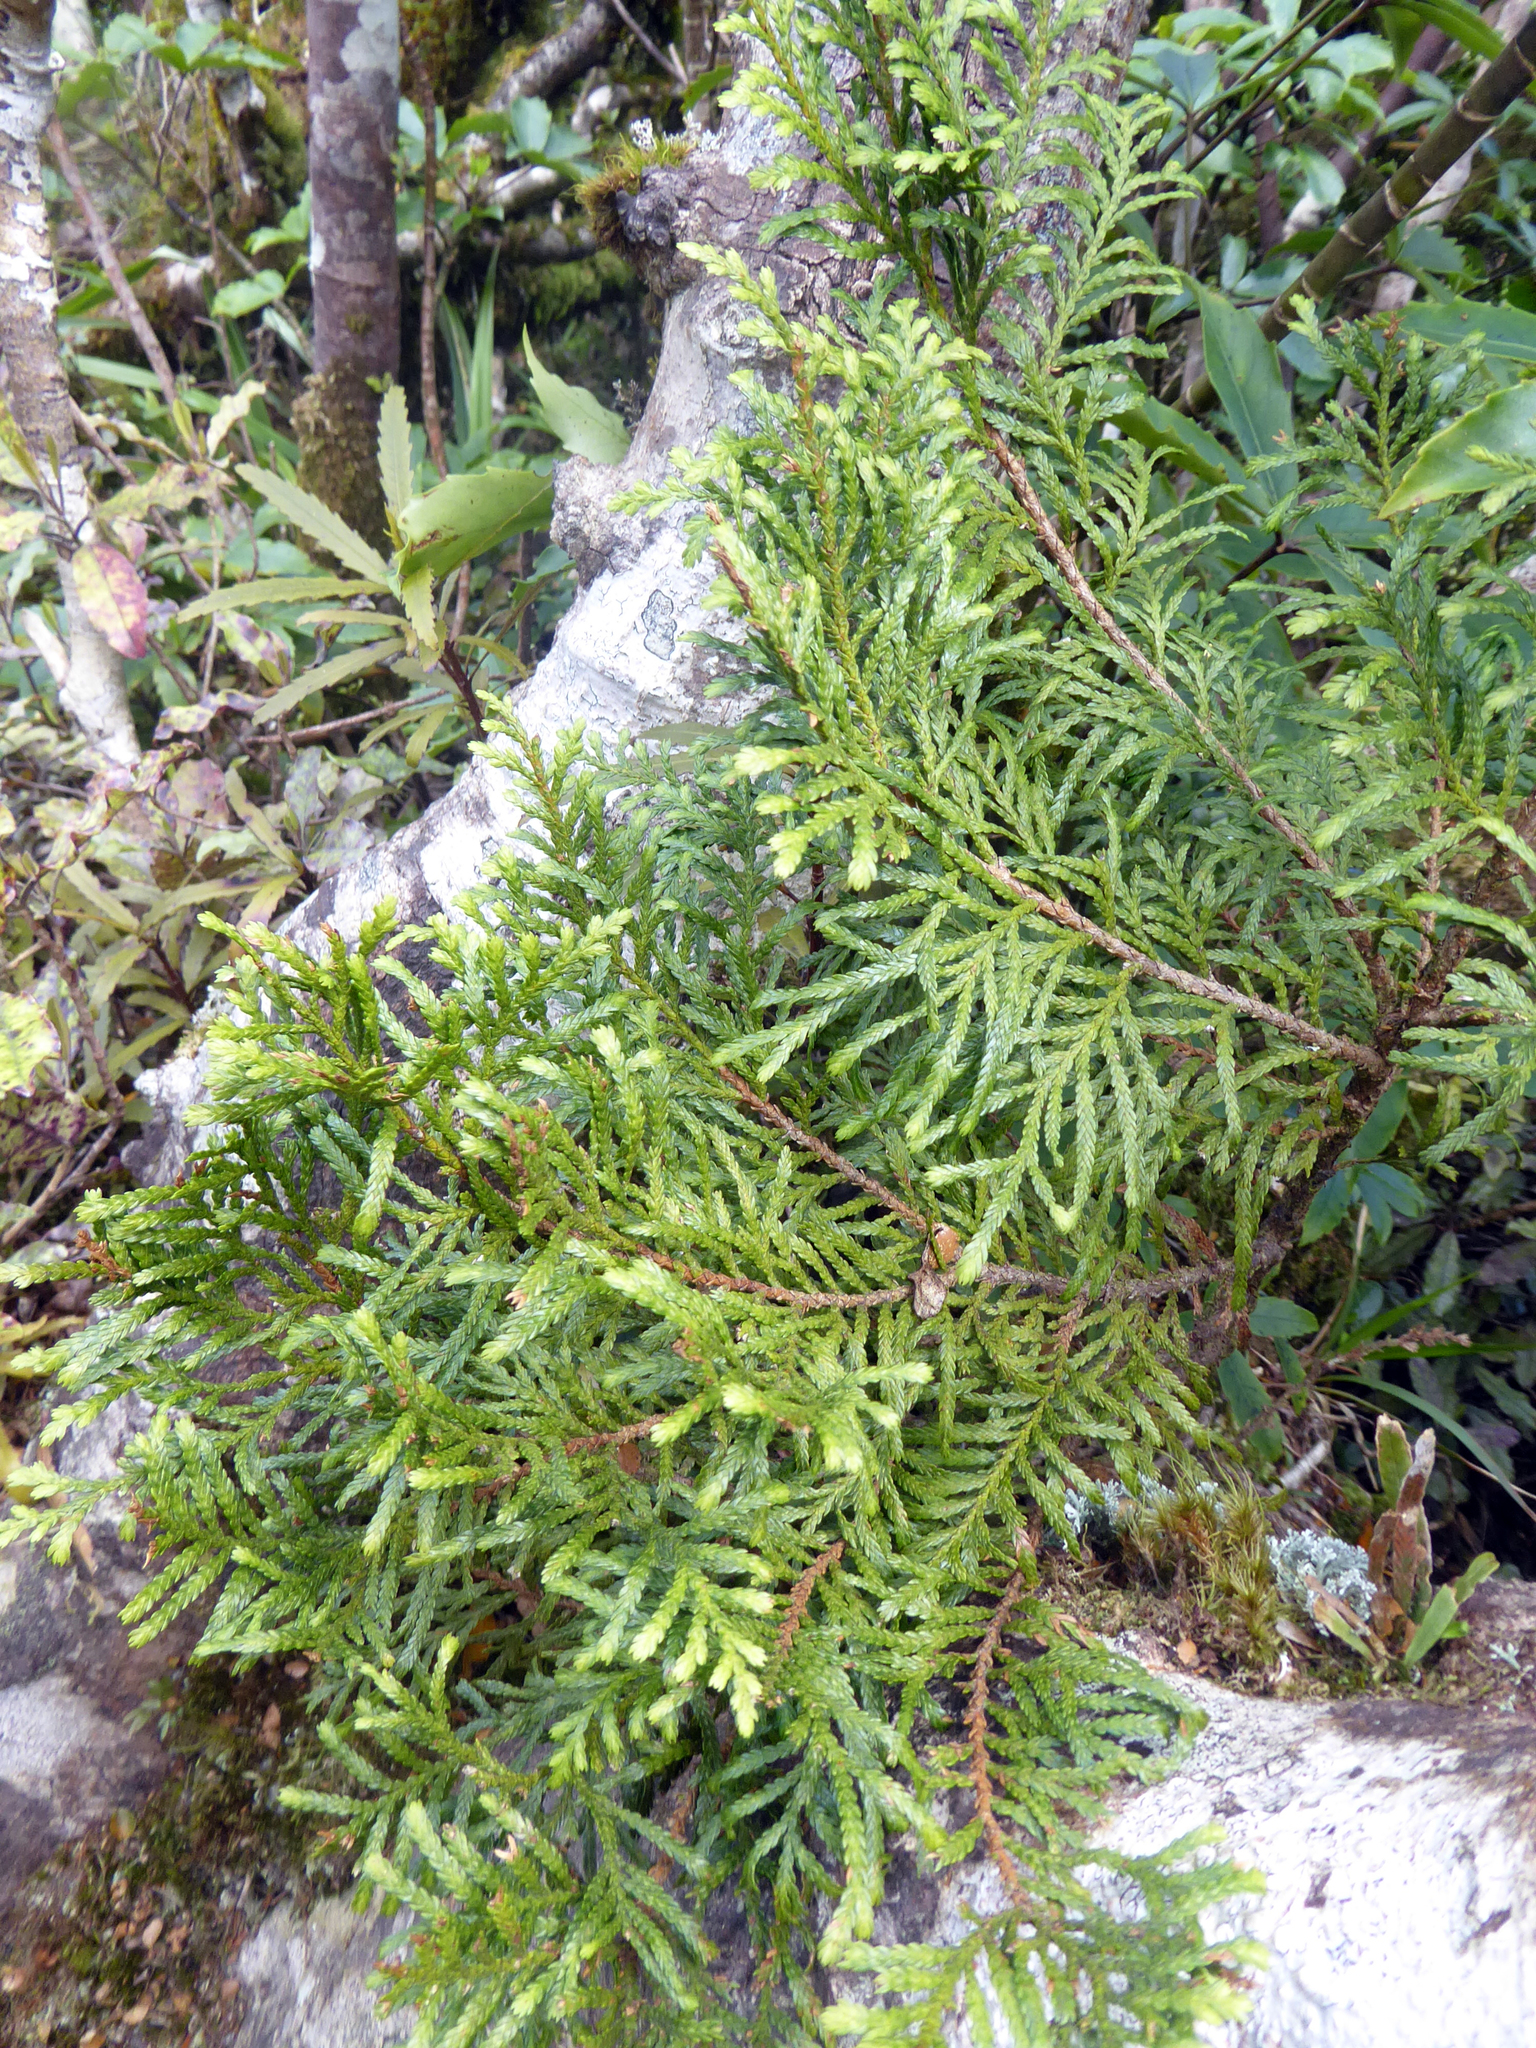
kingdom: Plantae
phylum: Tracheophyta
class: Pinopsida
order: Pinales
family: Cupressaceae
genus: Libocedrus
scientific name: Libocedrus bidwillii
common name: Cedar
